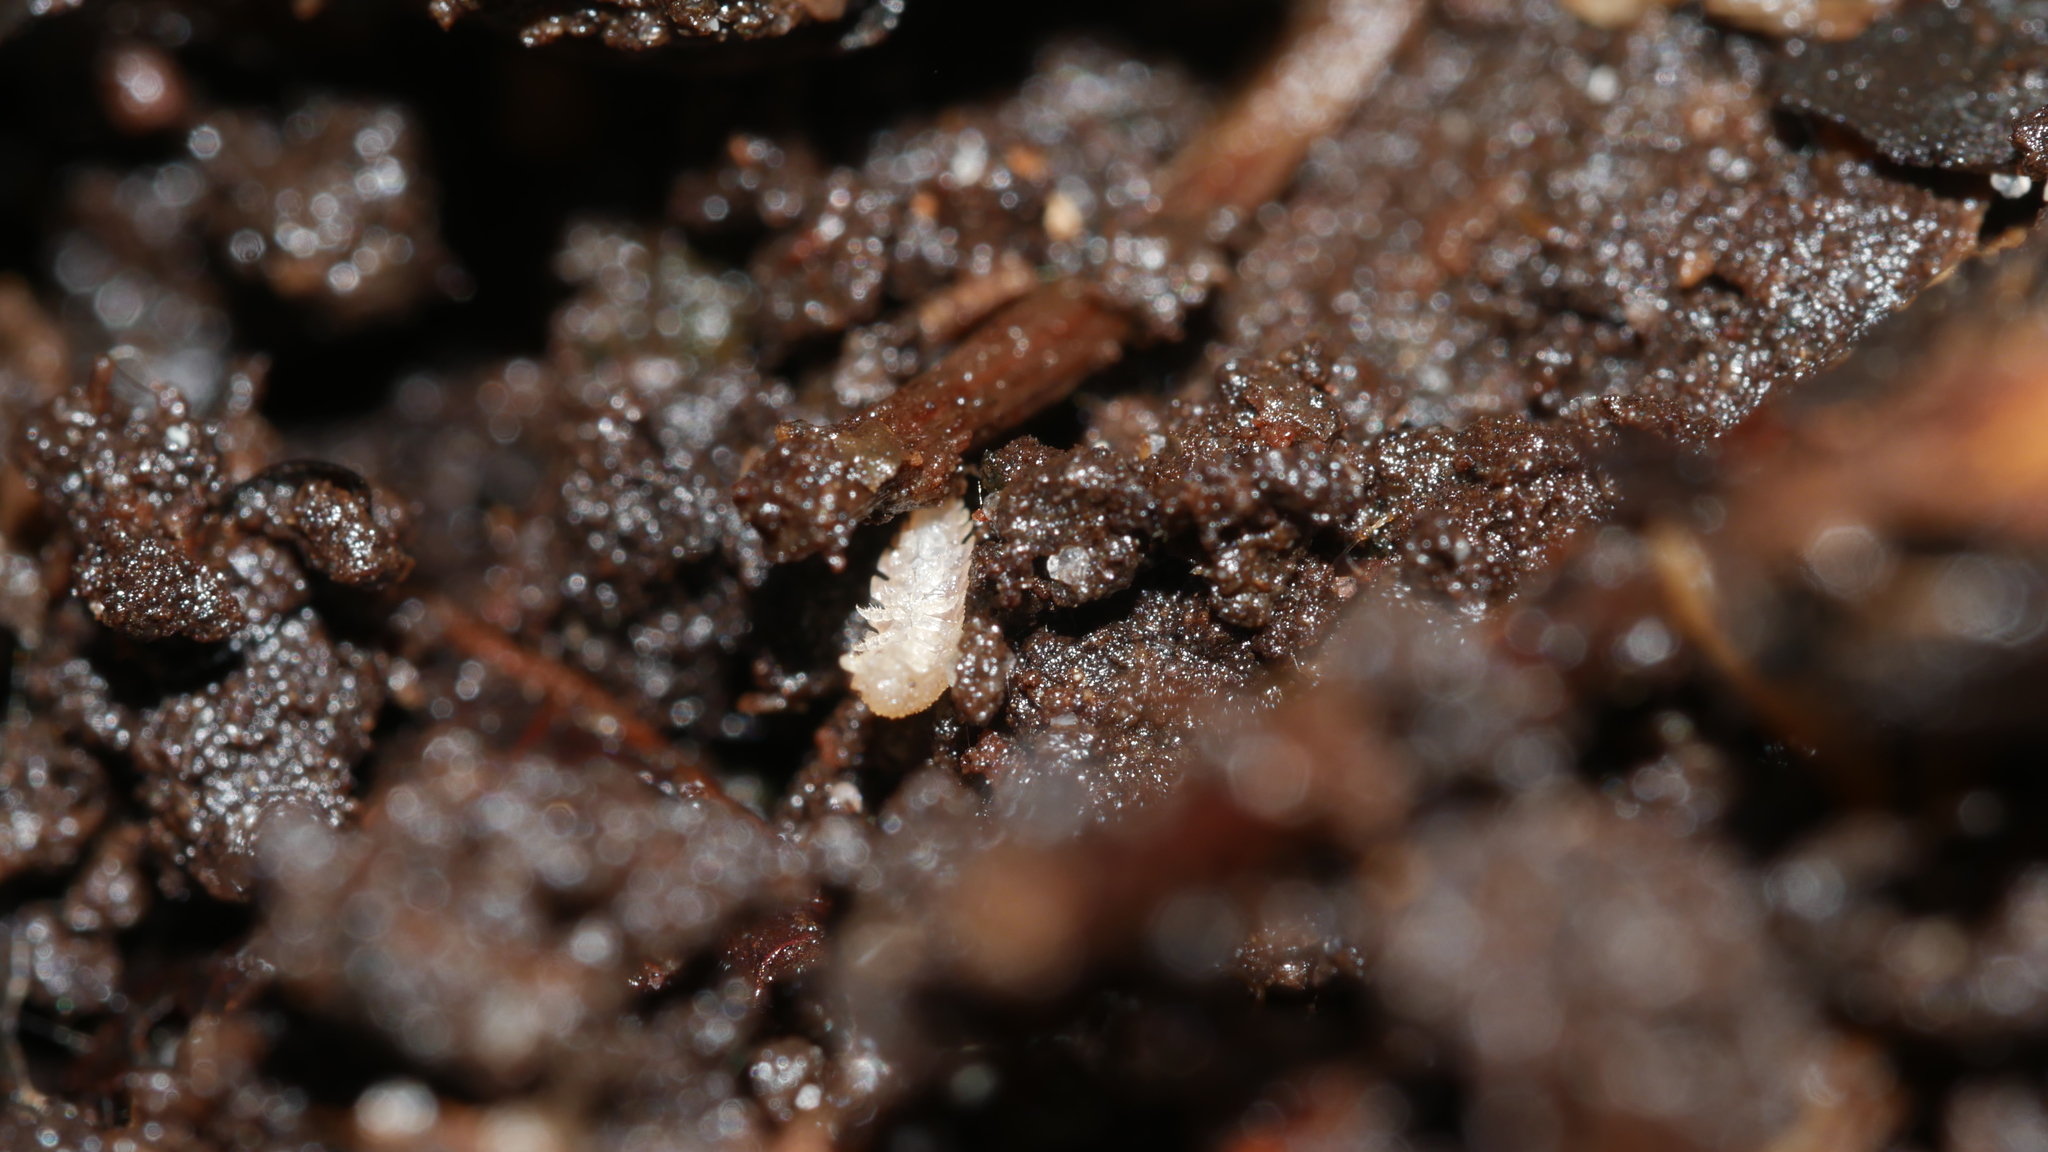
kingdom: Animalia
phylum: Arthropoda
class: Malacostraca
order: Isopoda
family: Trichoniscidae
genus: Haplophthalmus
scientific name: Haplophthalmus danicus
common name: Pillbug
